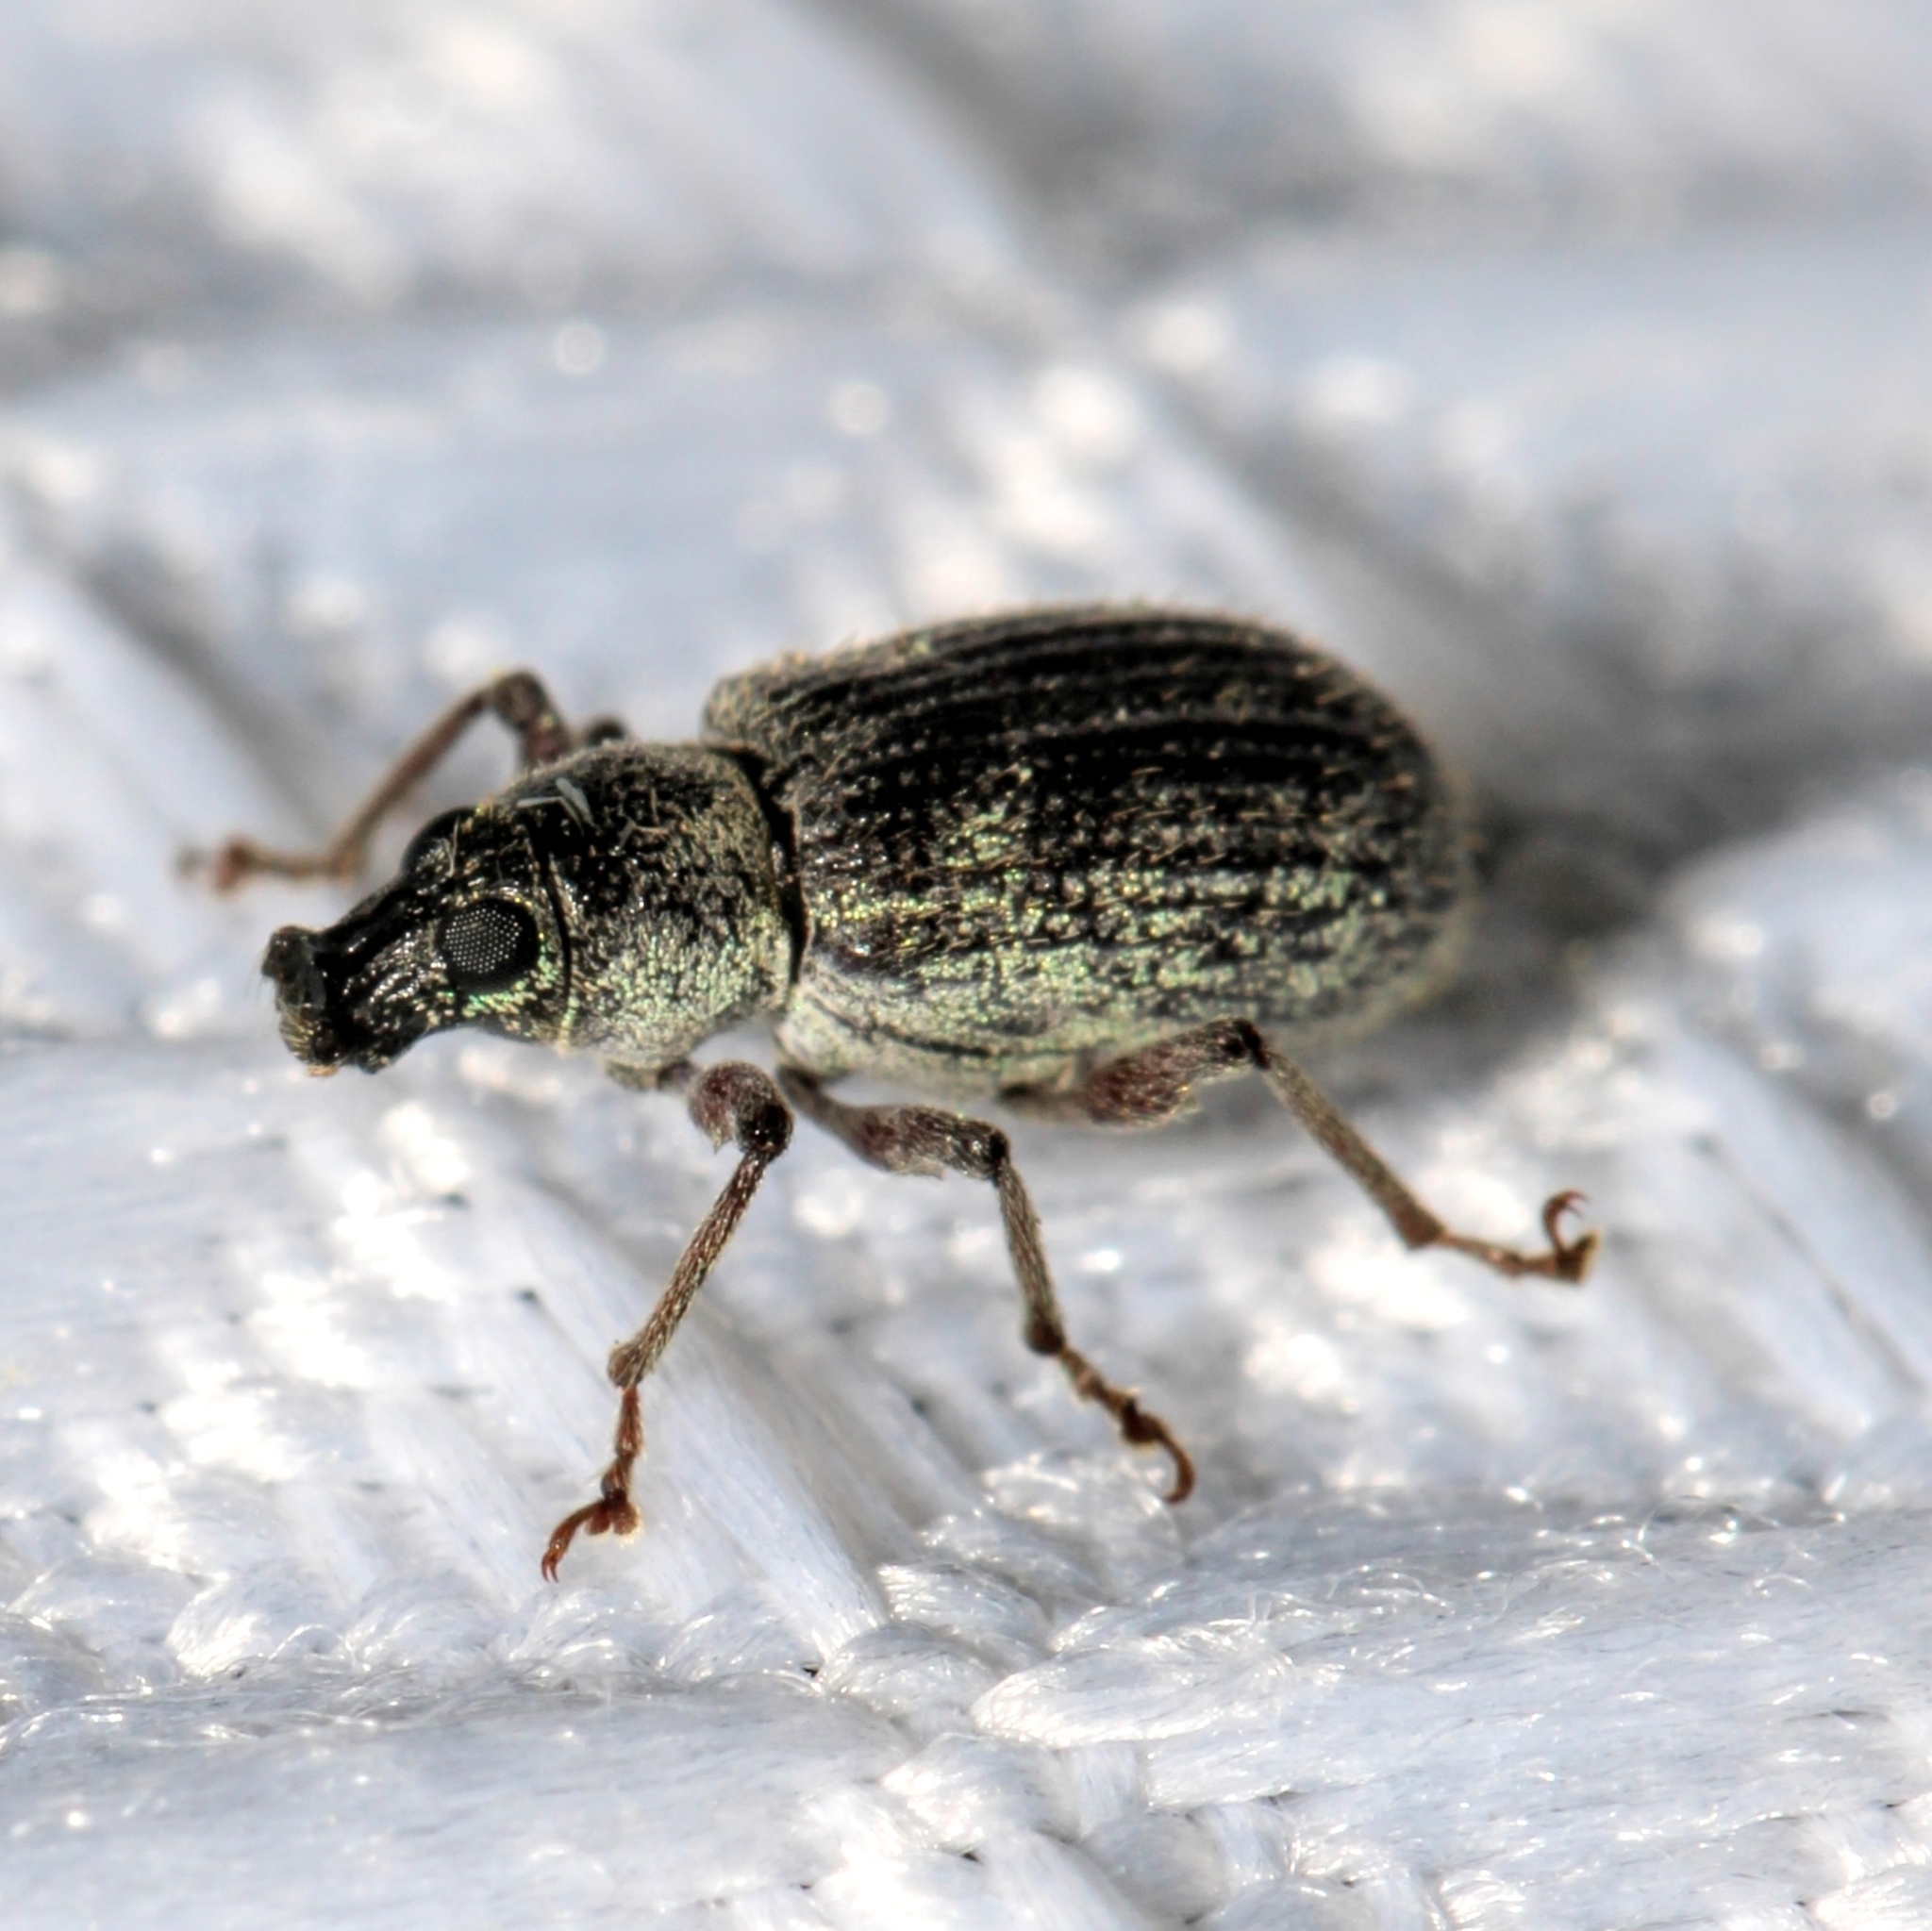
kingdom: Animalia
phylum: Arthropoda
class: Insecta
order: Coleoptera
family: Curculionidae
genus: Cyrtepistomus
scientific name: Cyrtepistomus castaneus
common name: Weevil
